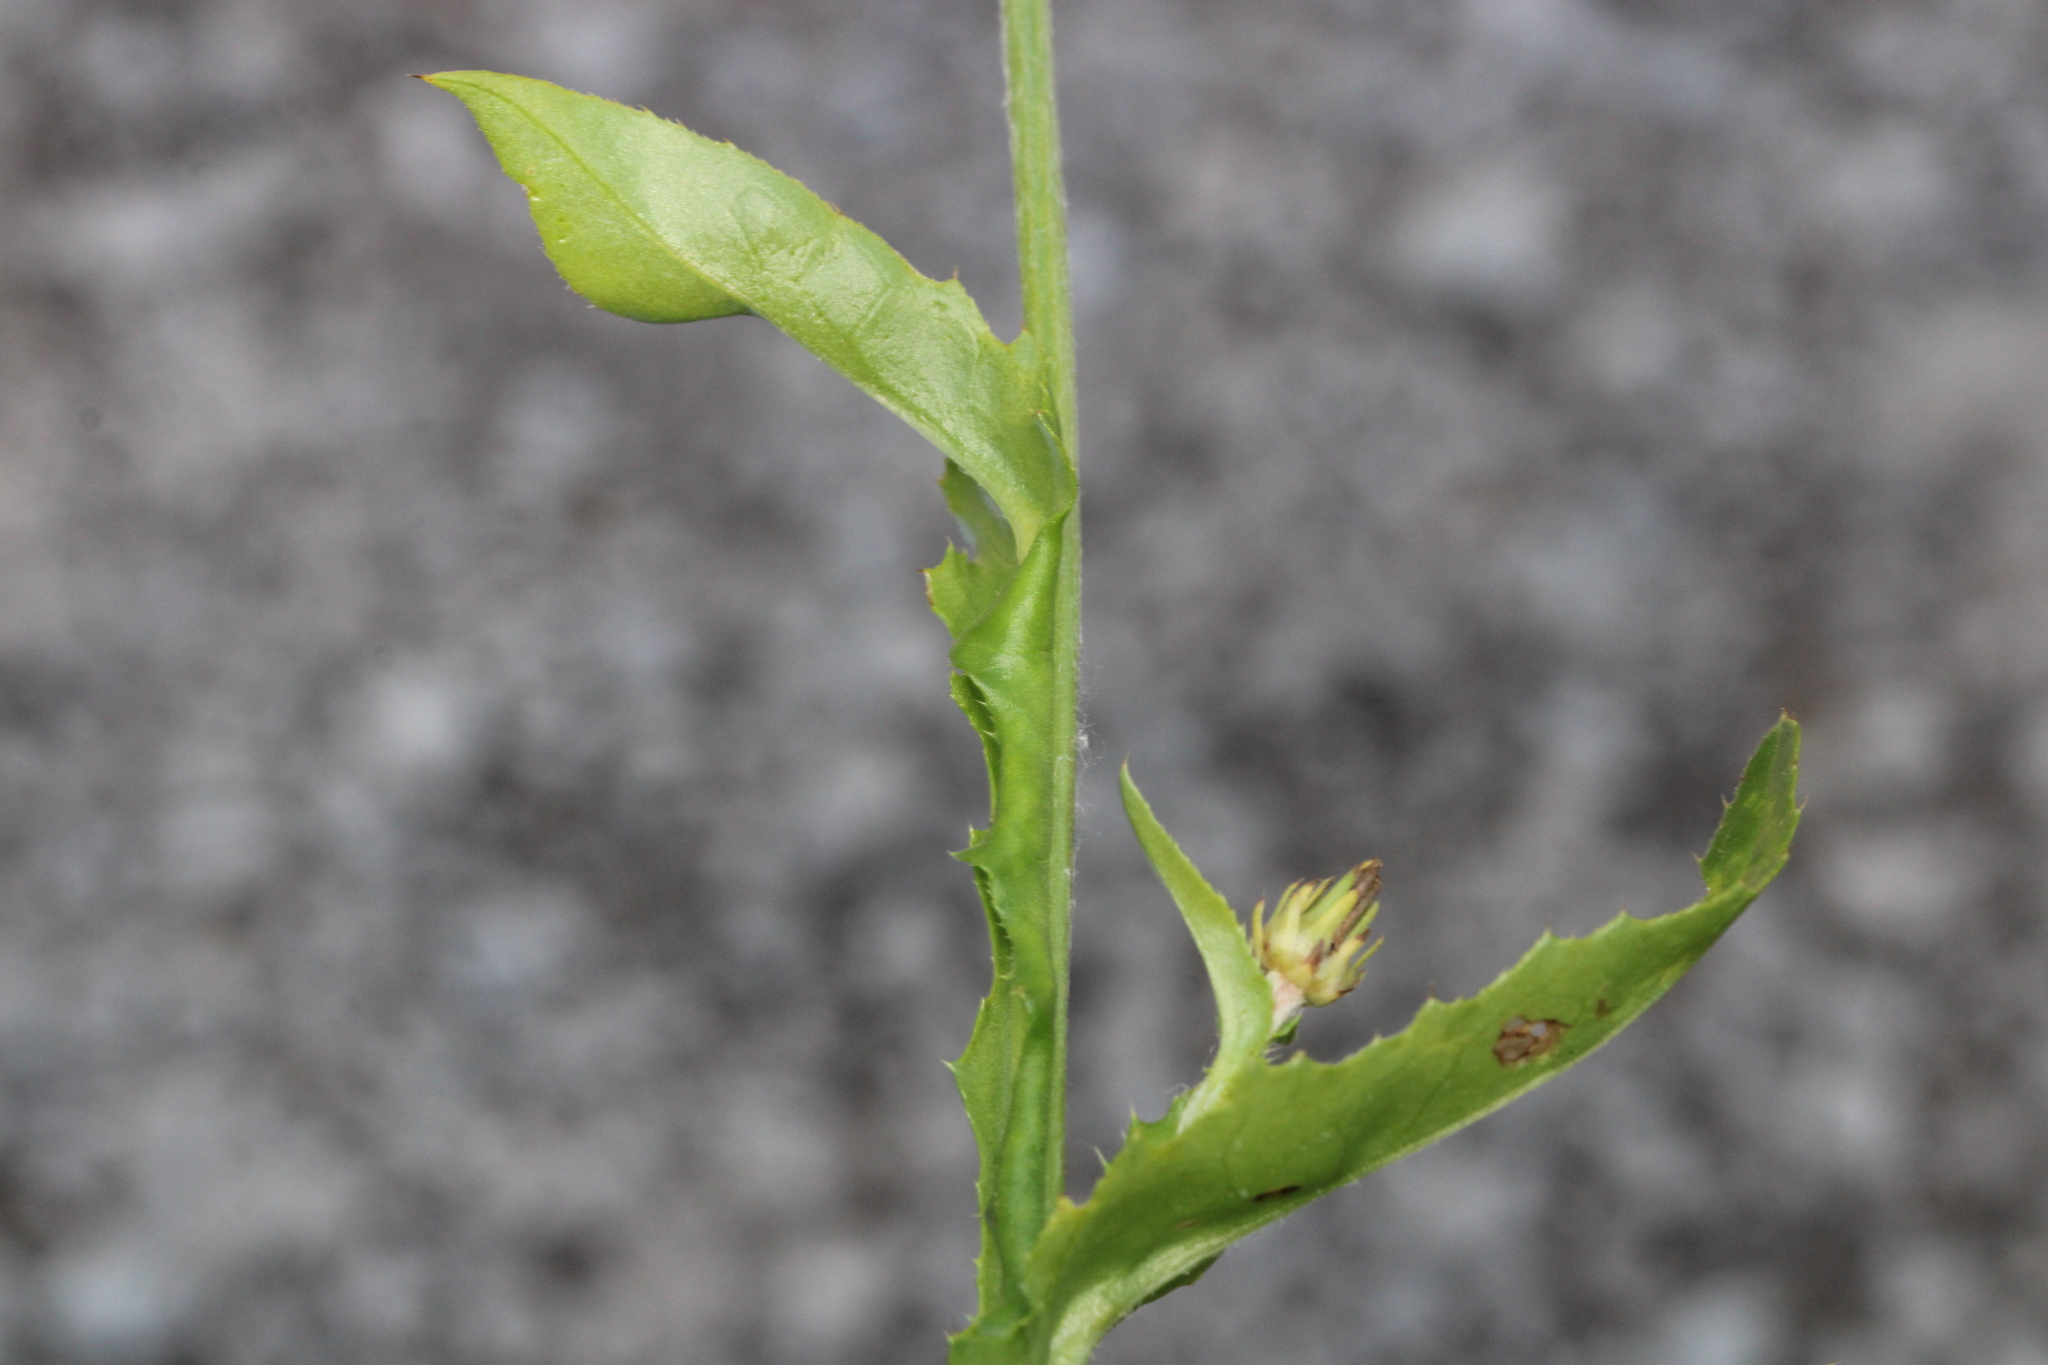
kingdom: Plantae
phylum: Tracheophyta
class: Magnoliopsida
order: Asterales
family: Asteraceae
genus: Carduus
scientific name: Carduus defloratus
